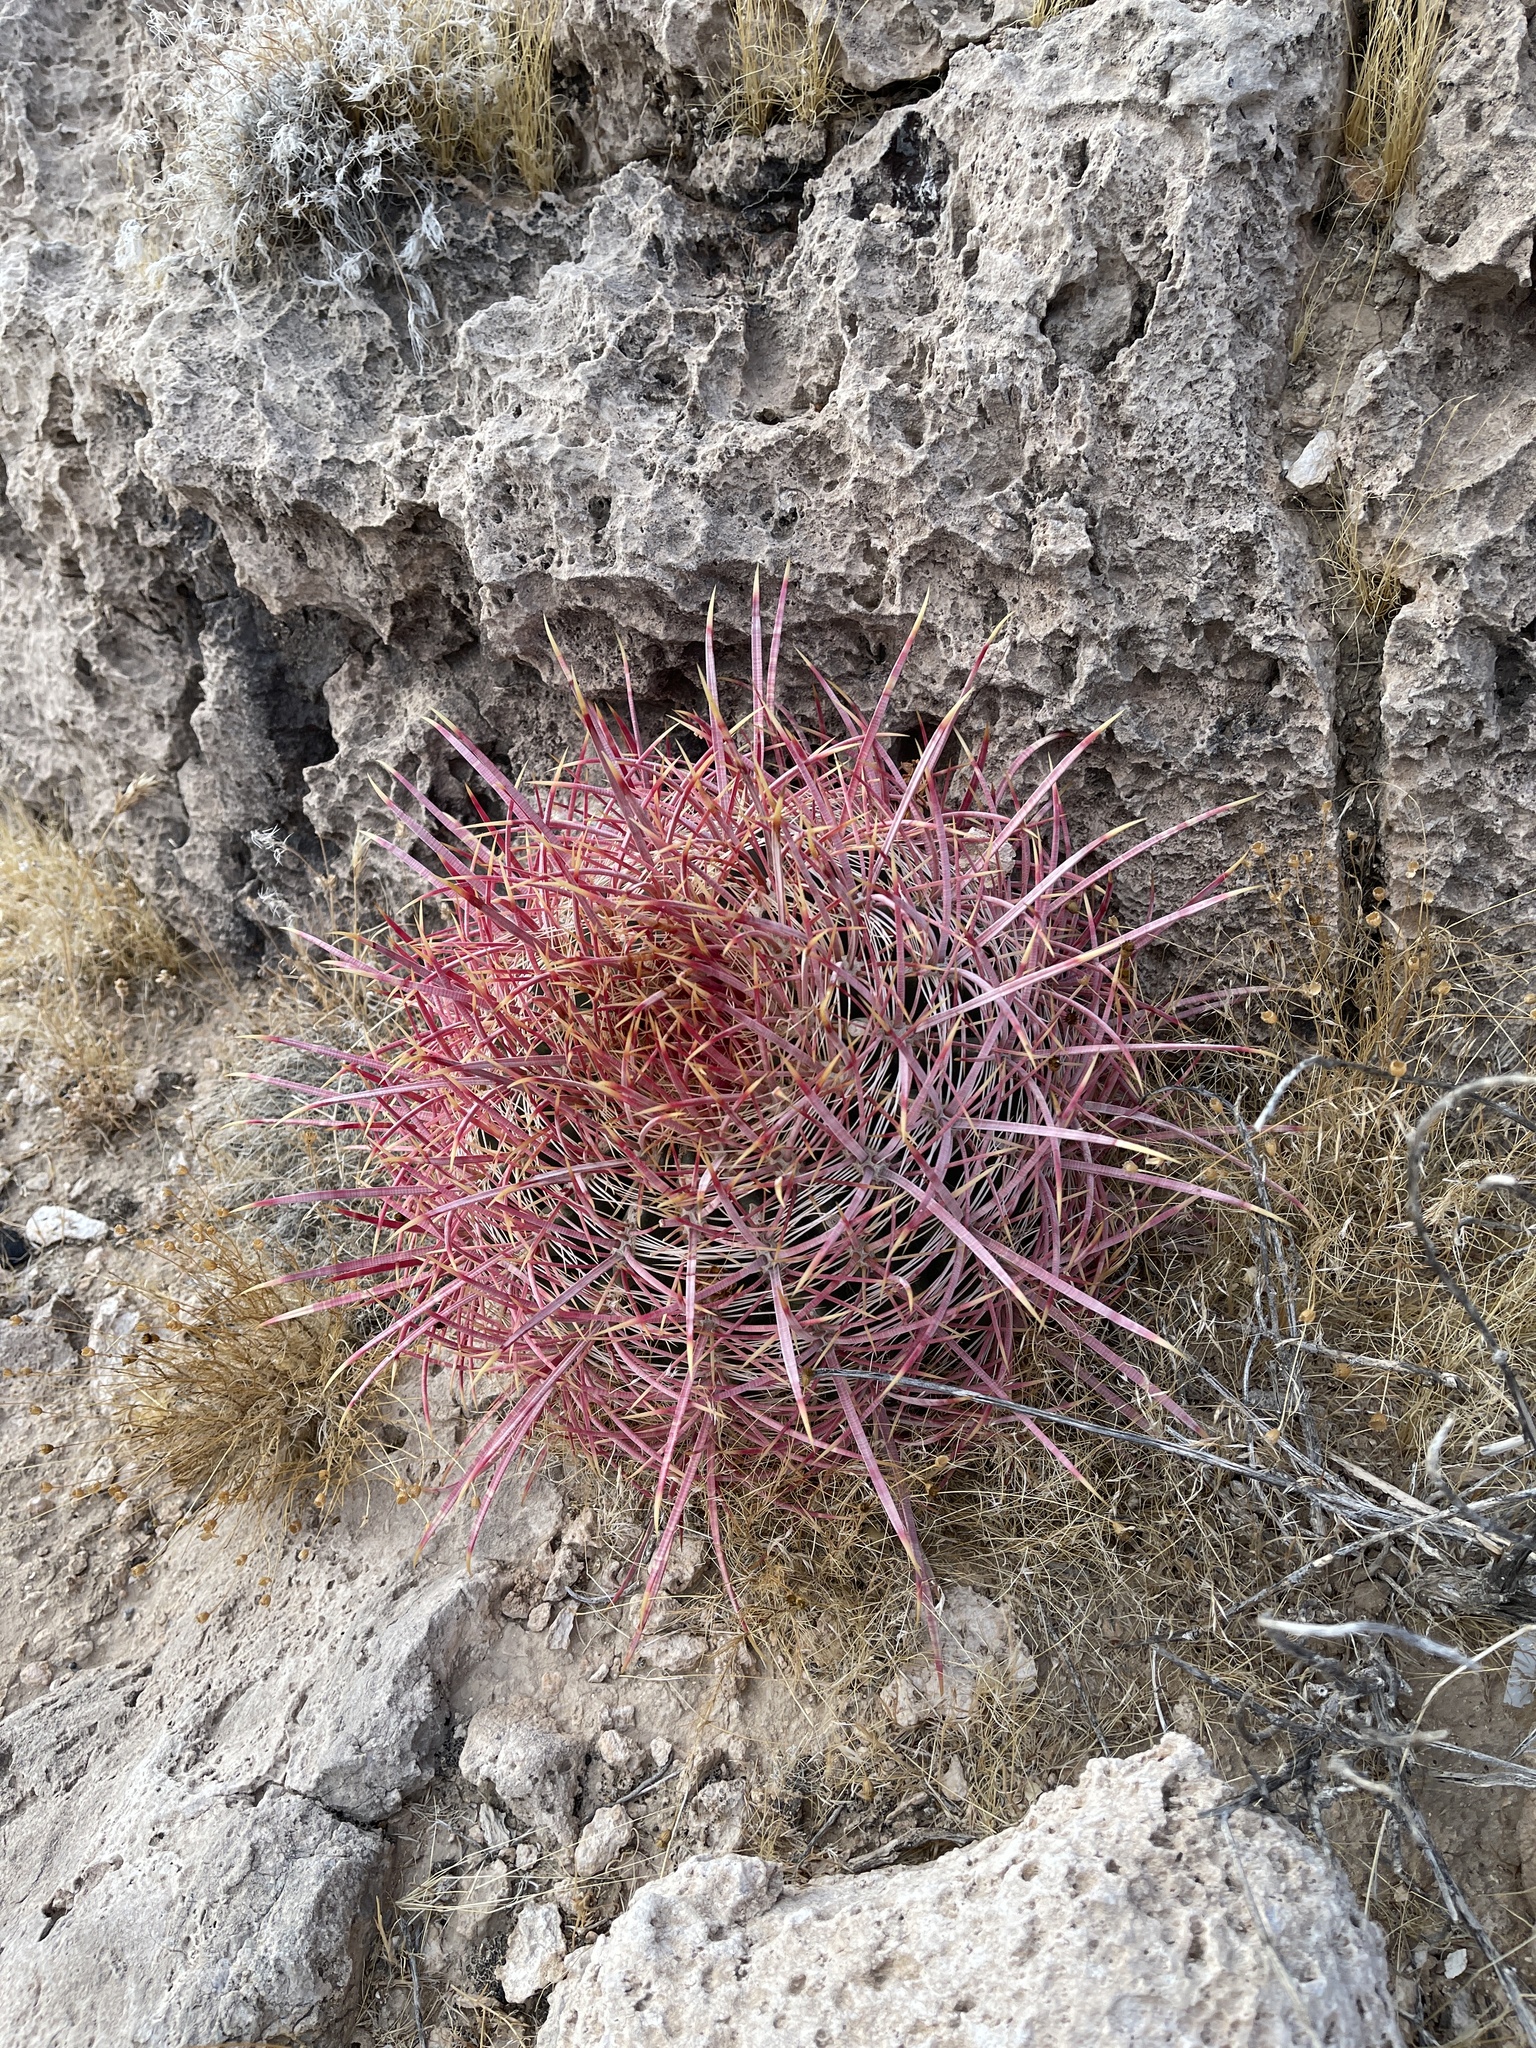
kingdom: Plantae
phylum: Tracheophyta
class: Magnoliopsida
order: Caryophyllales
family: Cactaceae
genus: Ferocactus
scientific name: Ferocactus cylindraceus
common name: California barrel cactus
